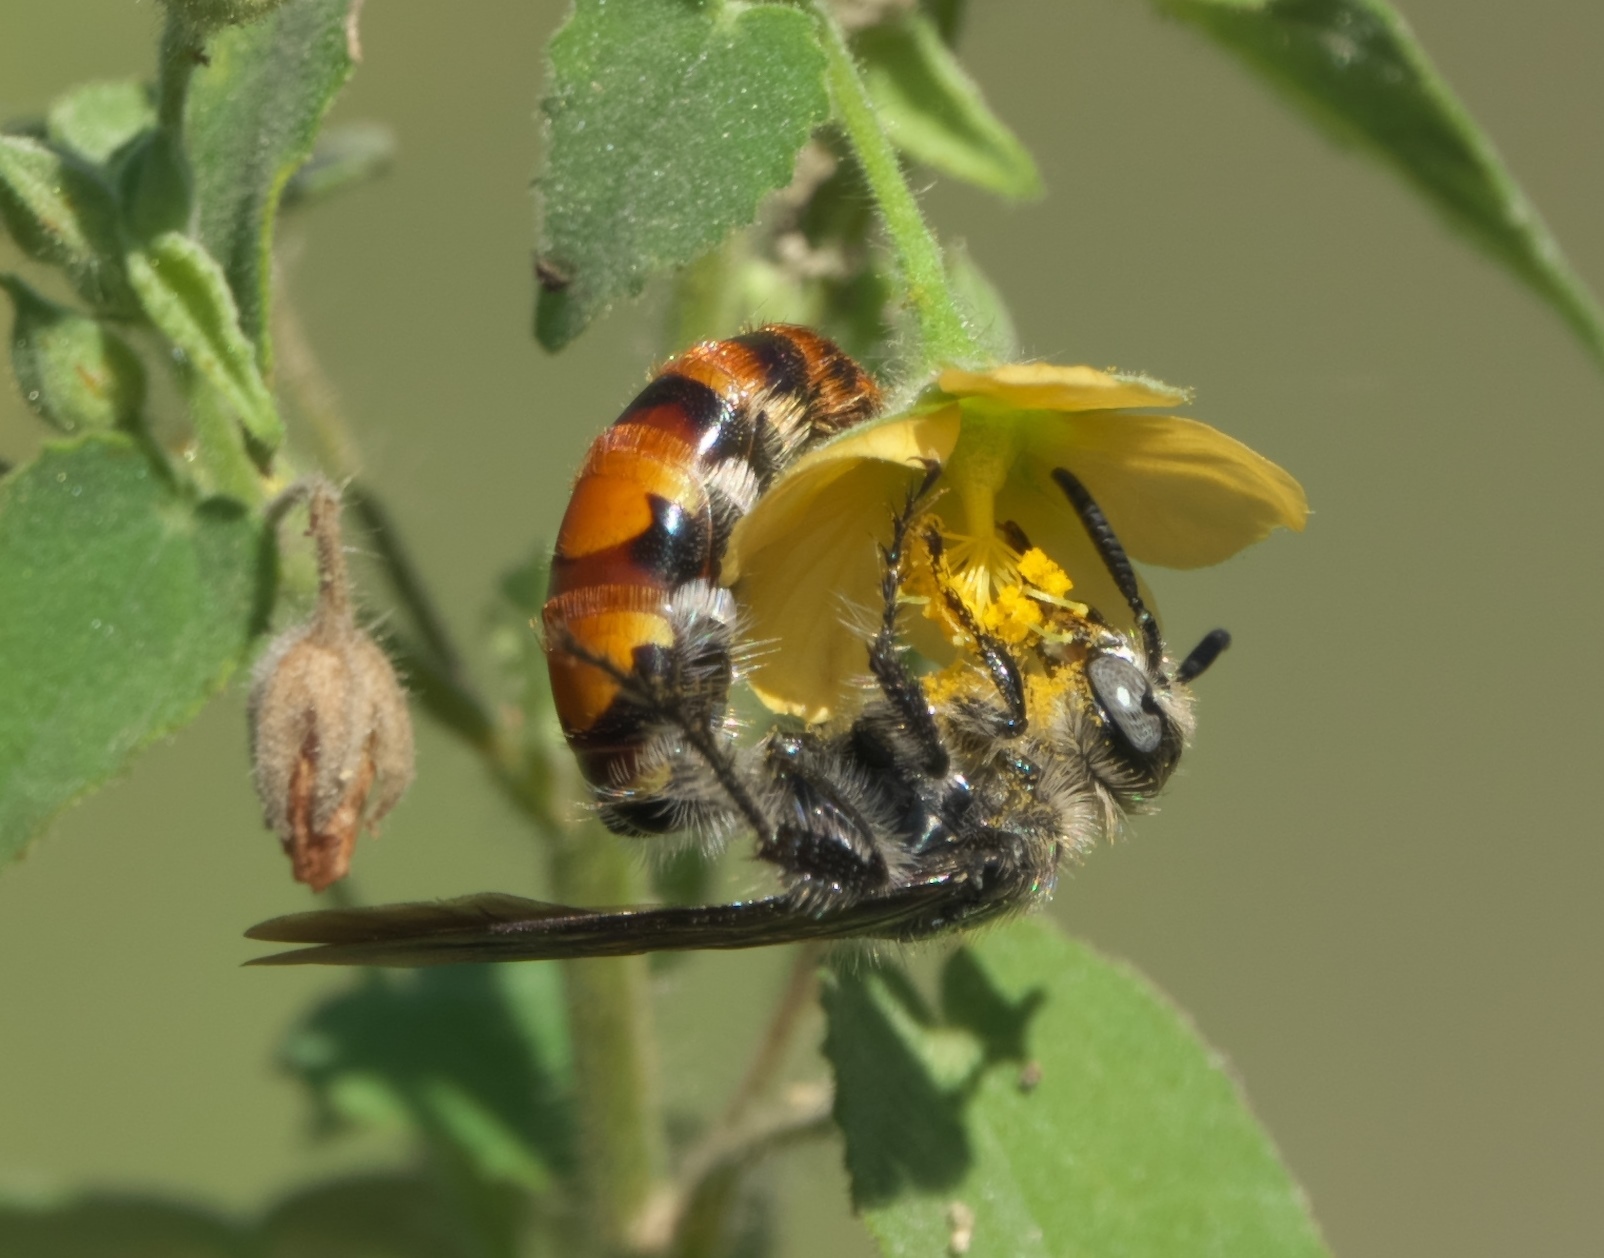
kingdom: Animalia
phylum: Arthropoda
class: Insecta
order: Hymenoptera
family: Scoliidae
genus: Dielis
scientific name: Dielis tolteca
